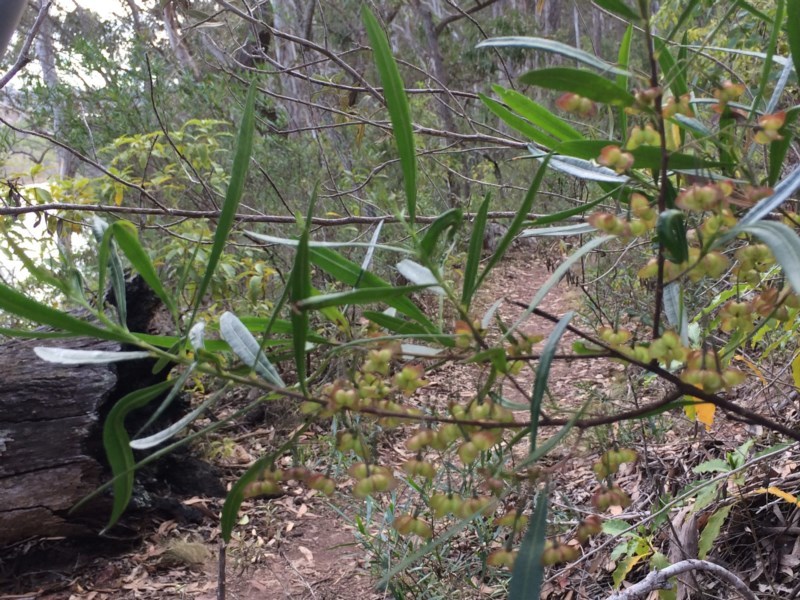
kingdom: Plantae
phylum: Tracheophyta
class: Magnoliopsida
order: Sapindales
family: Sapindaceae
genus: Dodonaea
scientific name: Dodonaea truncatialis
